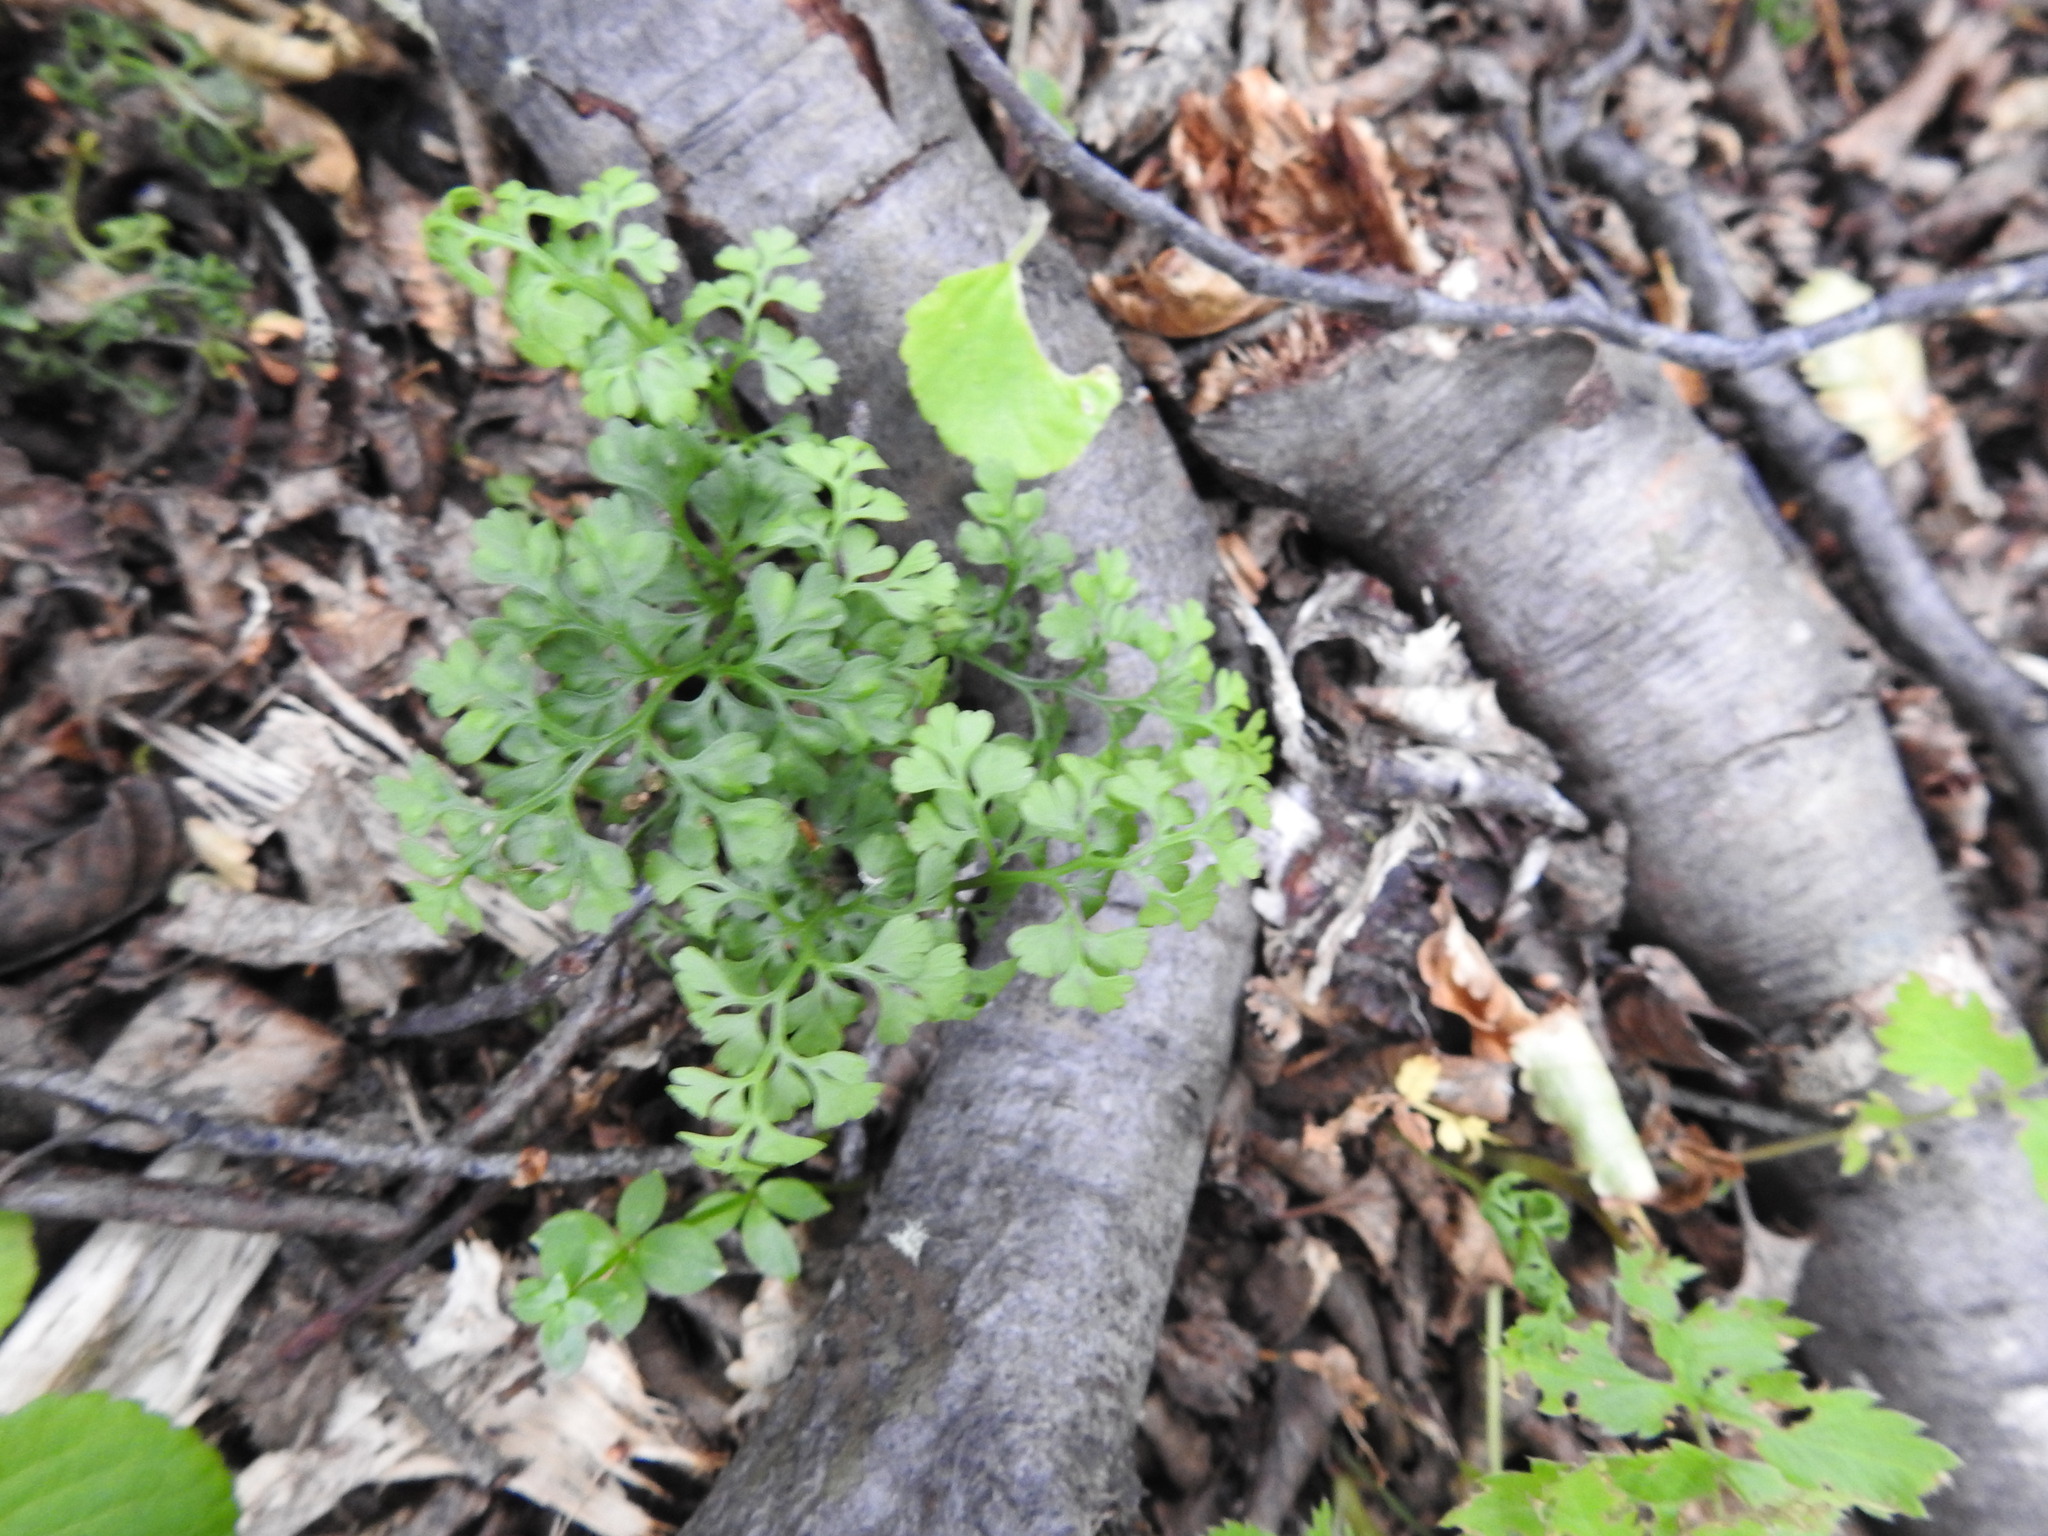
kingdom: Plantae
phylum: Tracheophyta
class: Polypodiopsida
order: Polypodiales
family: Aspleniaceae
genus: Asplenium
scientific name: Asplenium dareoides
